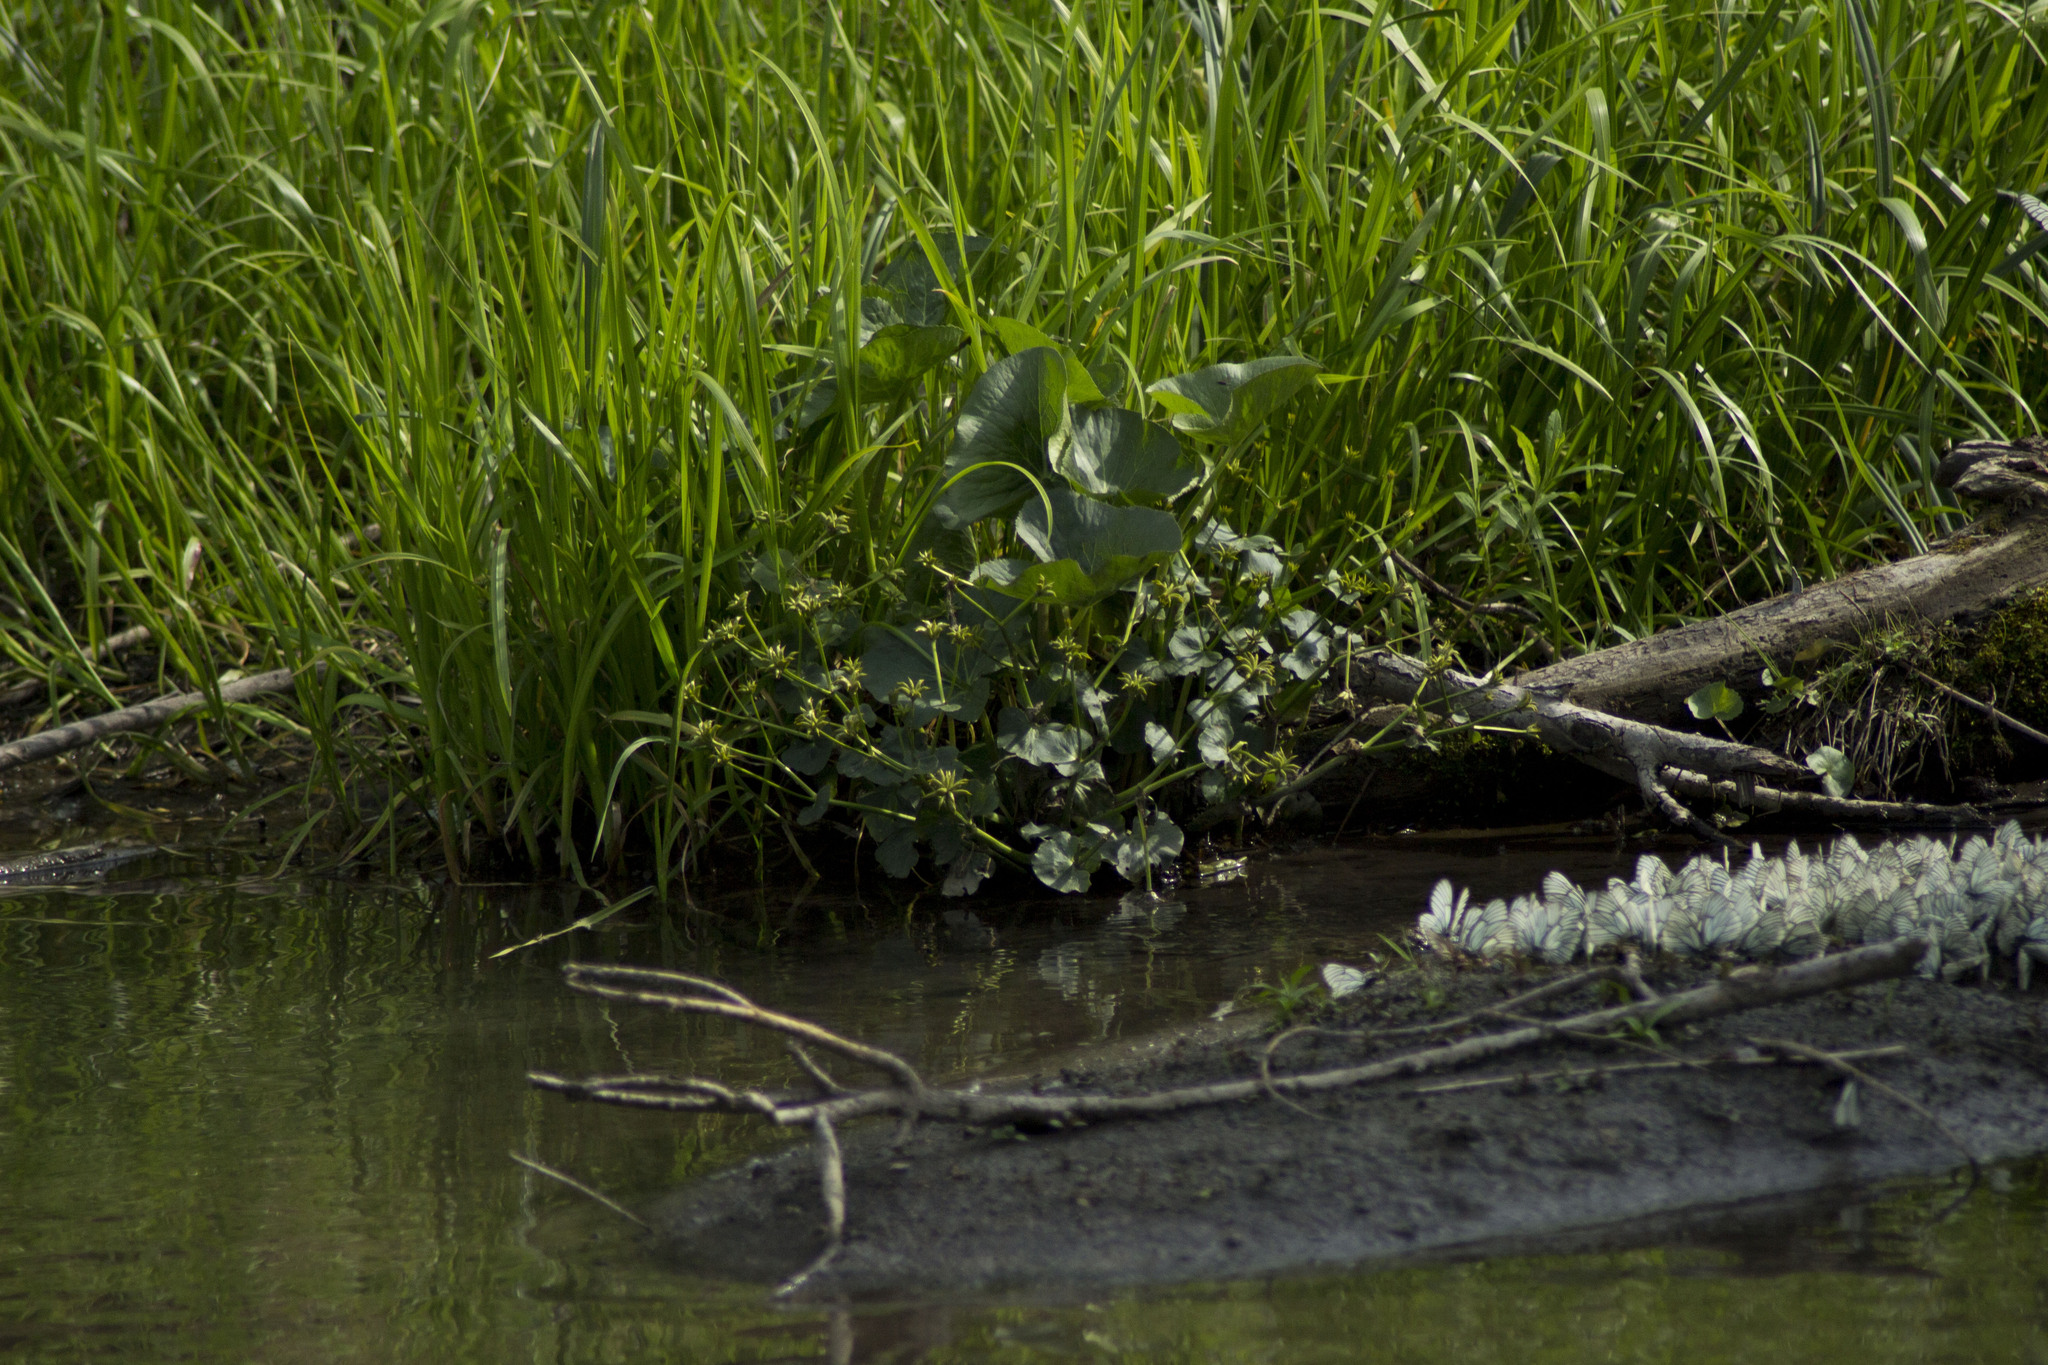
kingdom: Plantae
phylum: Tracheophyta
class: Magnoliopsida
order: Ranunculales
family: Ranunculaceae
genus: Caltha
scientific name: Caltha palustris
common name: Marsh marigold
